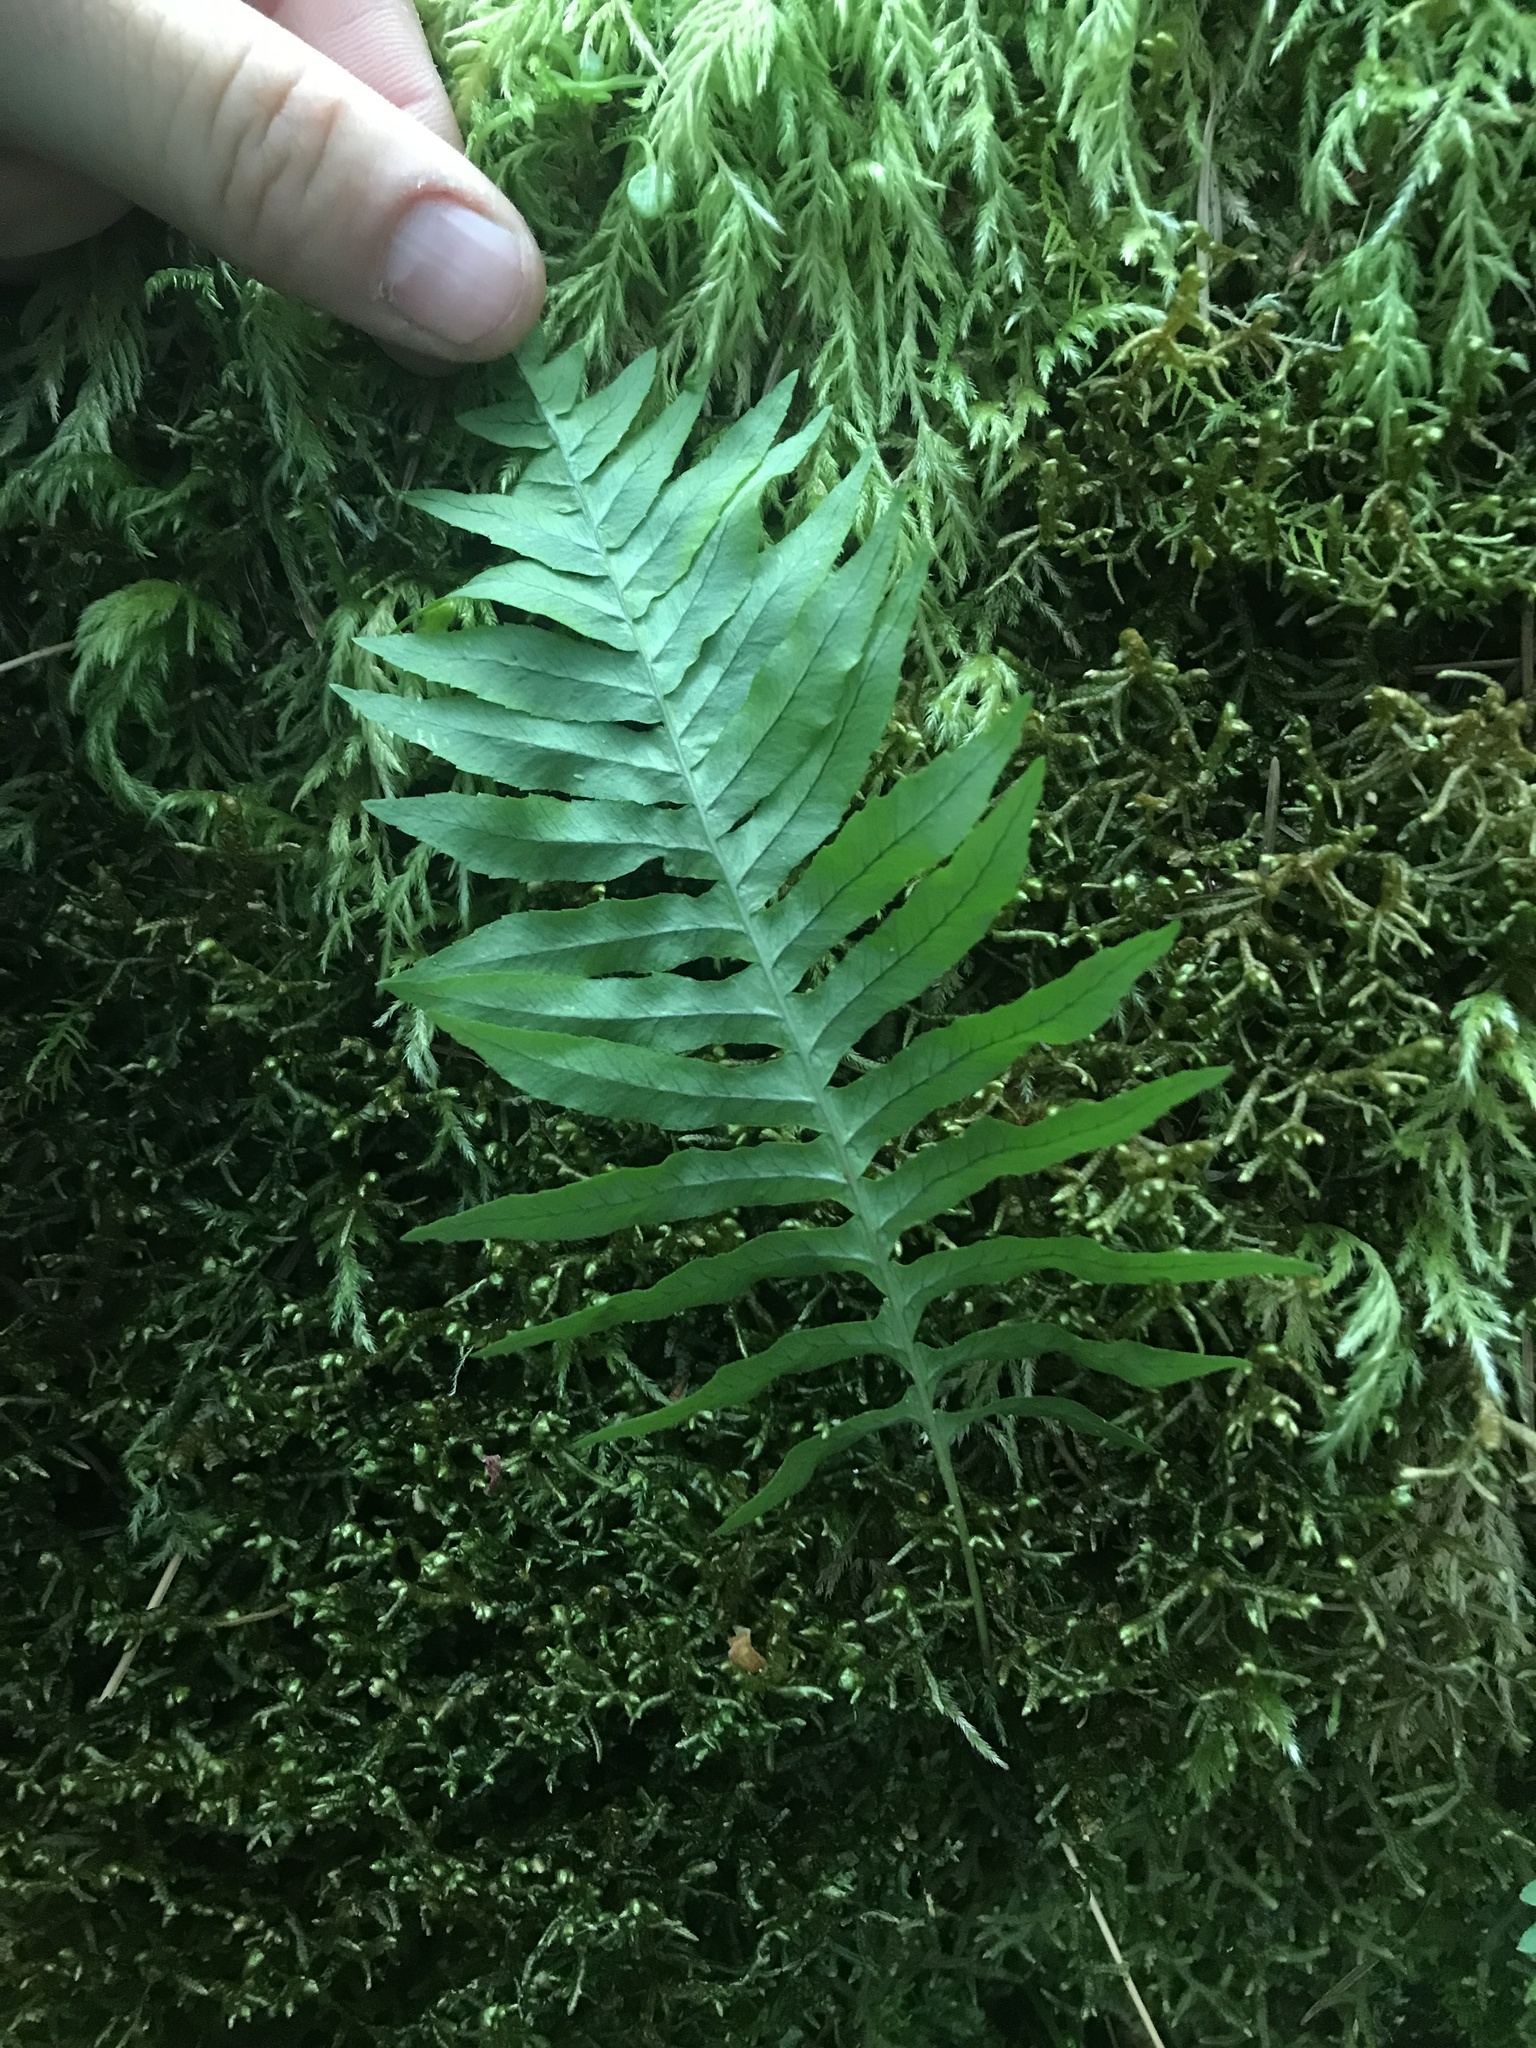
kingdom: Plantae
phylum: Tracheophyta
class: Polypodiopsida
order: Polypodiales
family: Polypodiaceae
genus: Polypodium
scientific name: Polypodium glycyrrhiza
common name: Licorice fern
